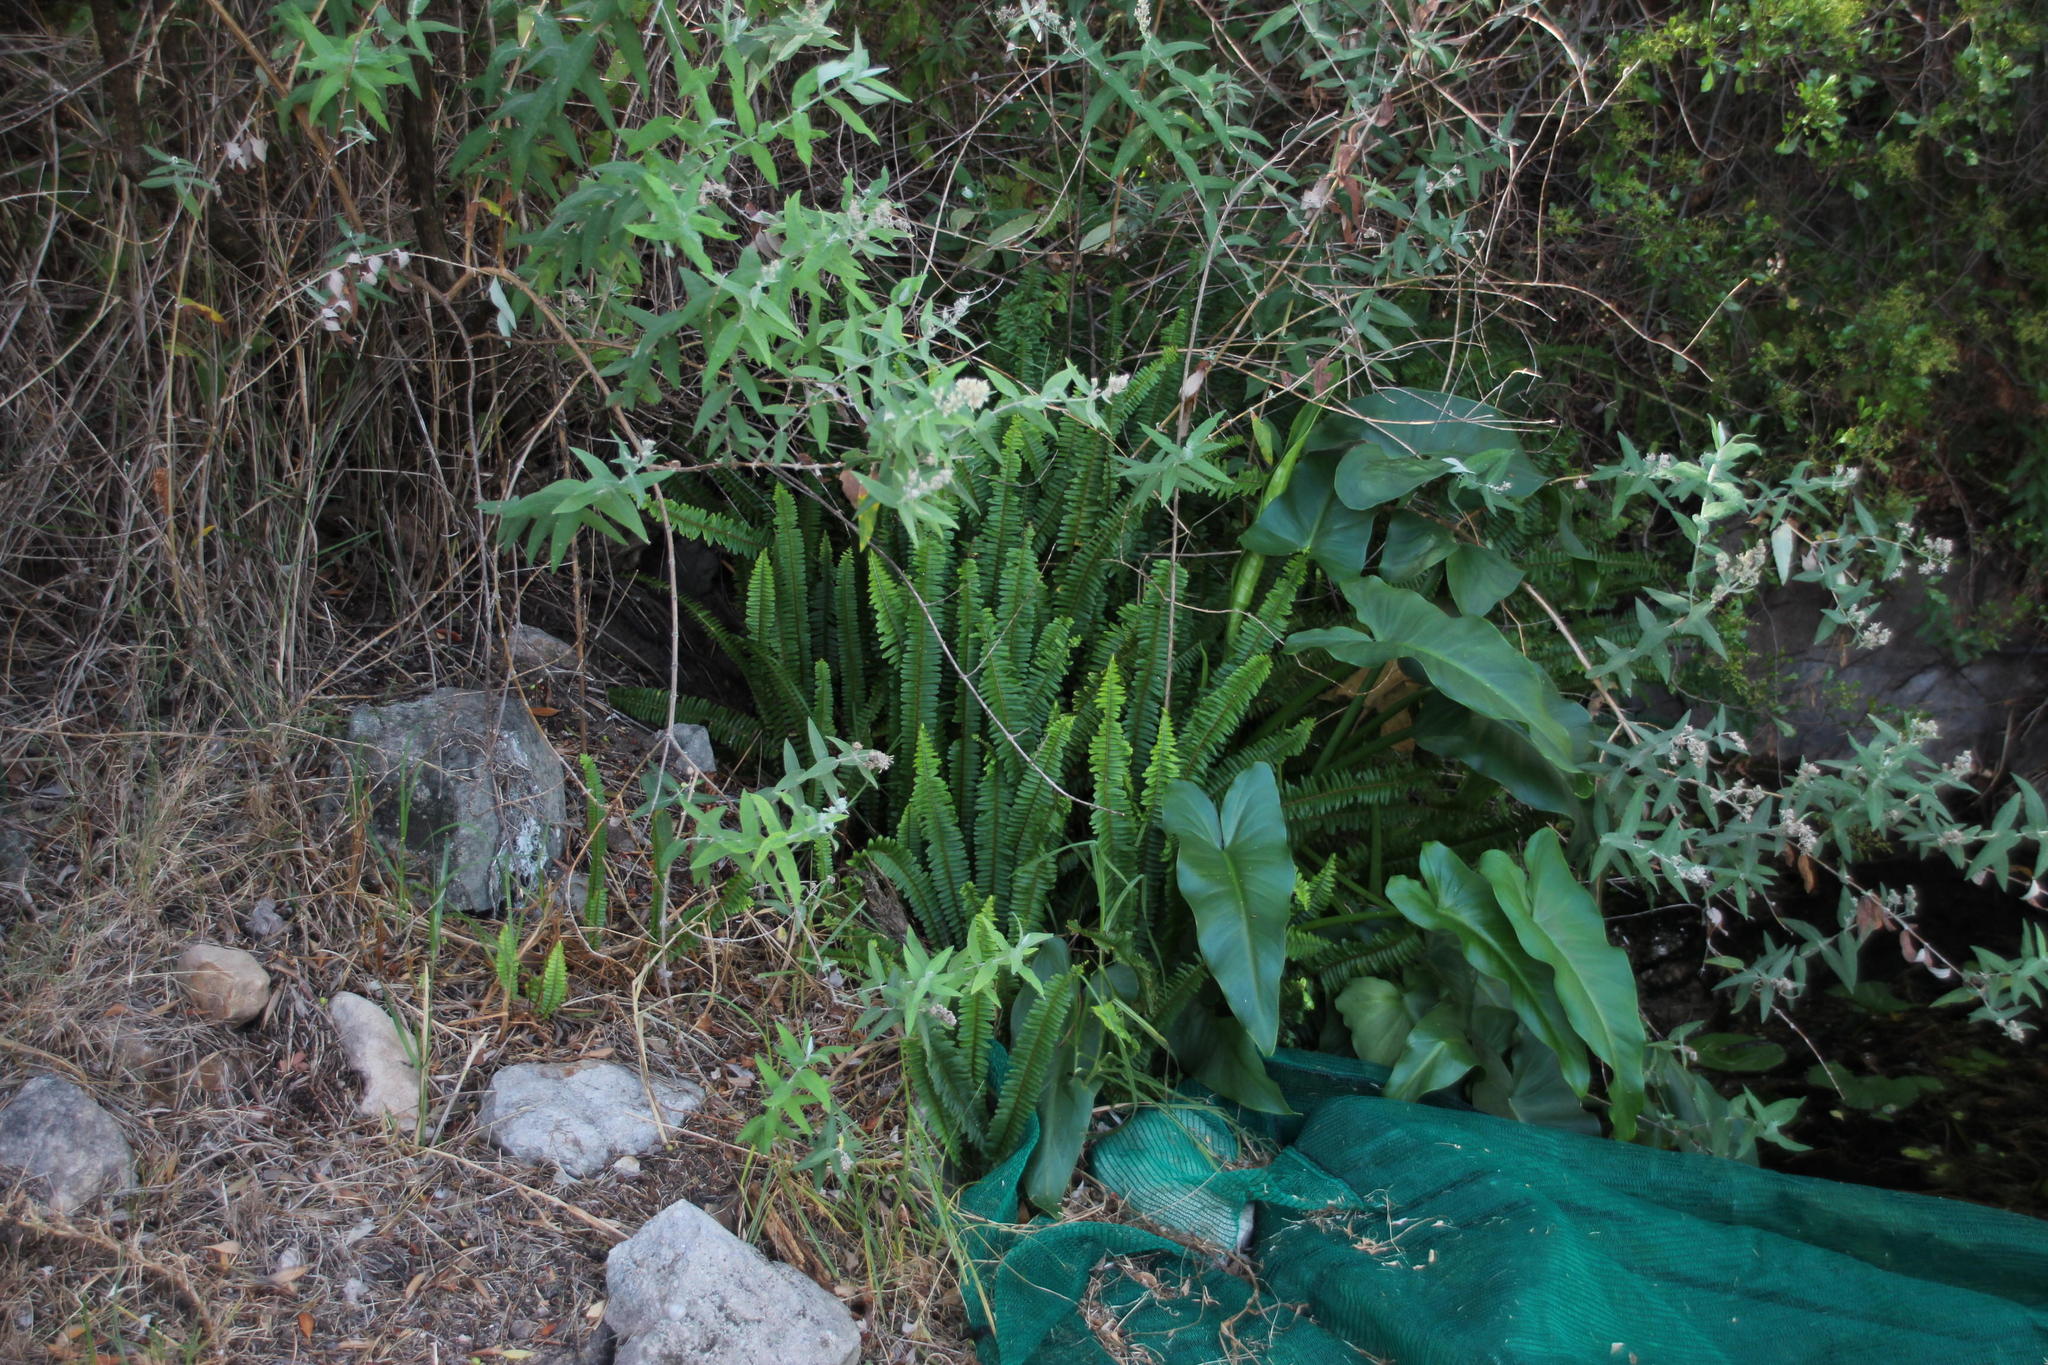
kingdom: Plantae
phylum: Tracheophyta
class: Polypodiopsida
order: Polypodiales
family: Nephrolepidaceae
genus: Nephrolepis
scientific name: Nephrolepis cordifolia
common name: Narrow swordfern
